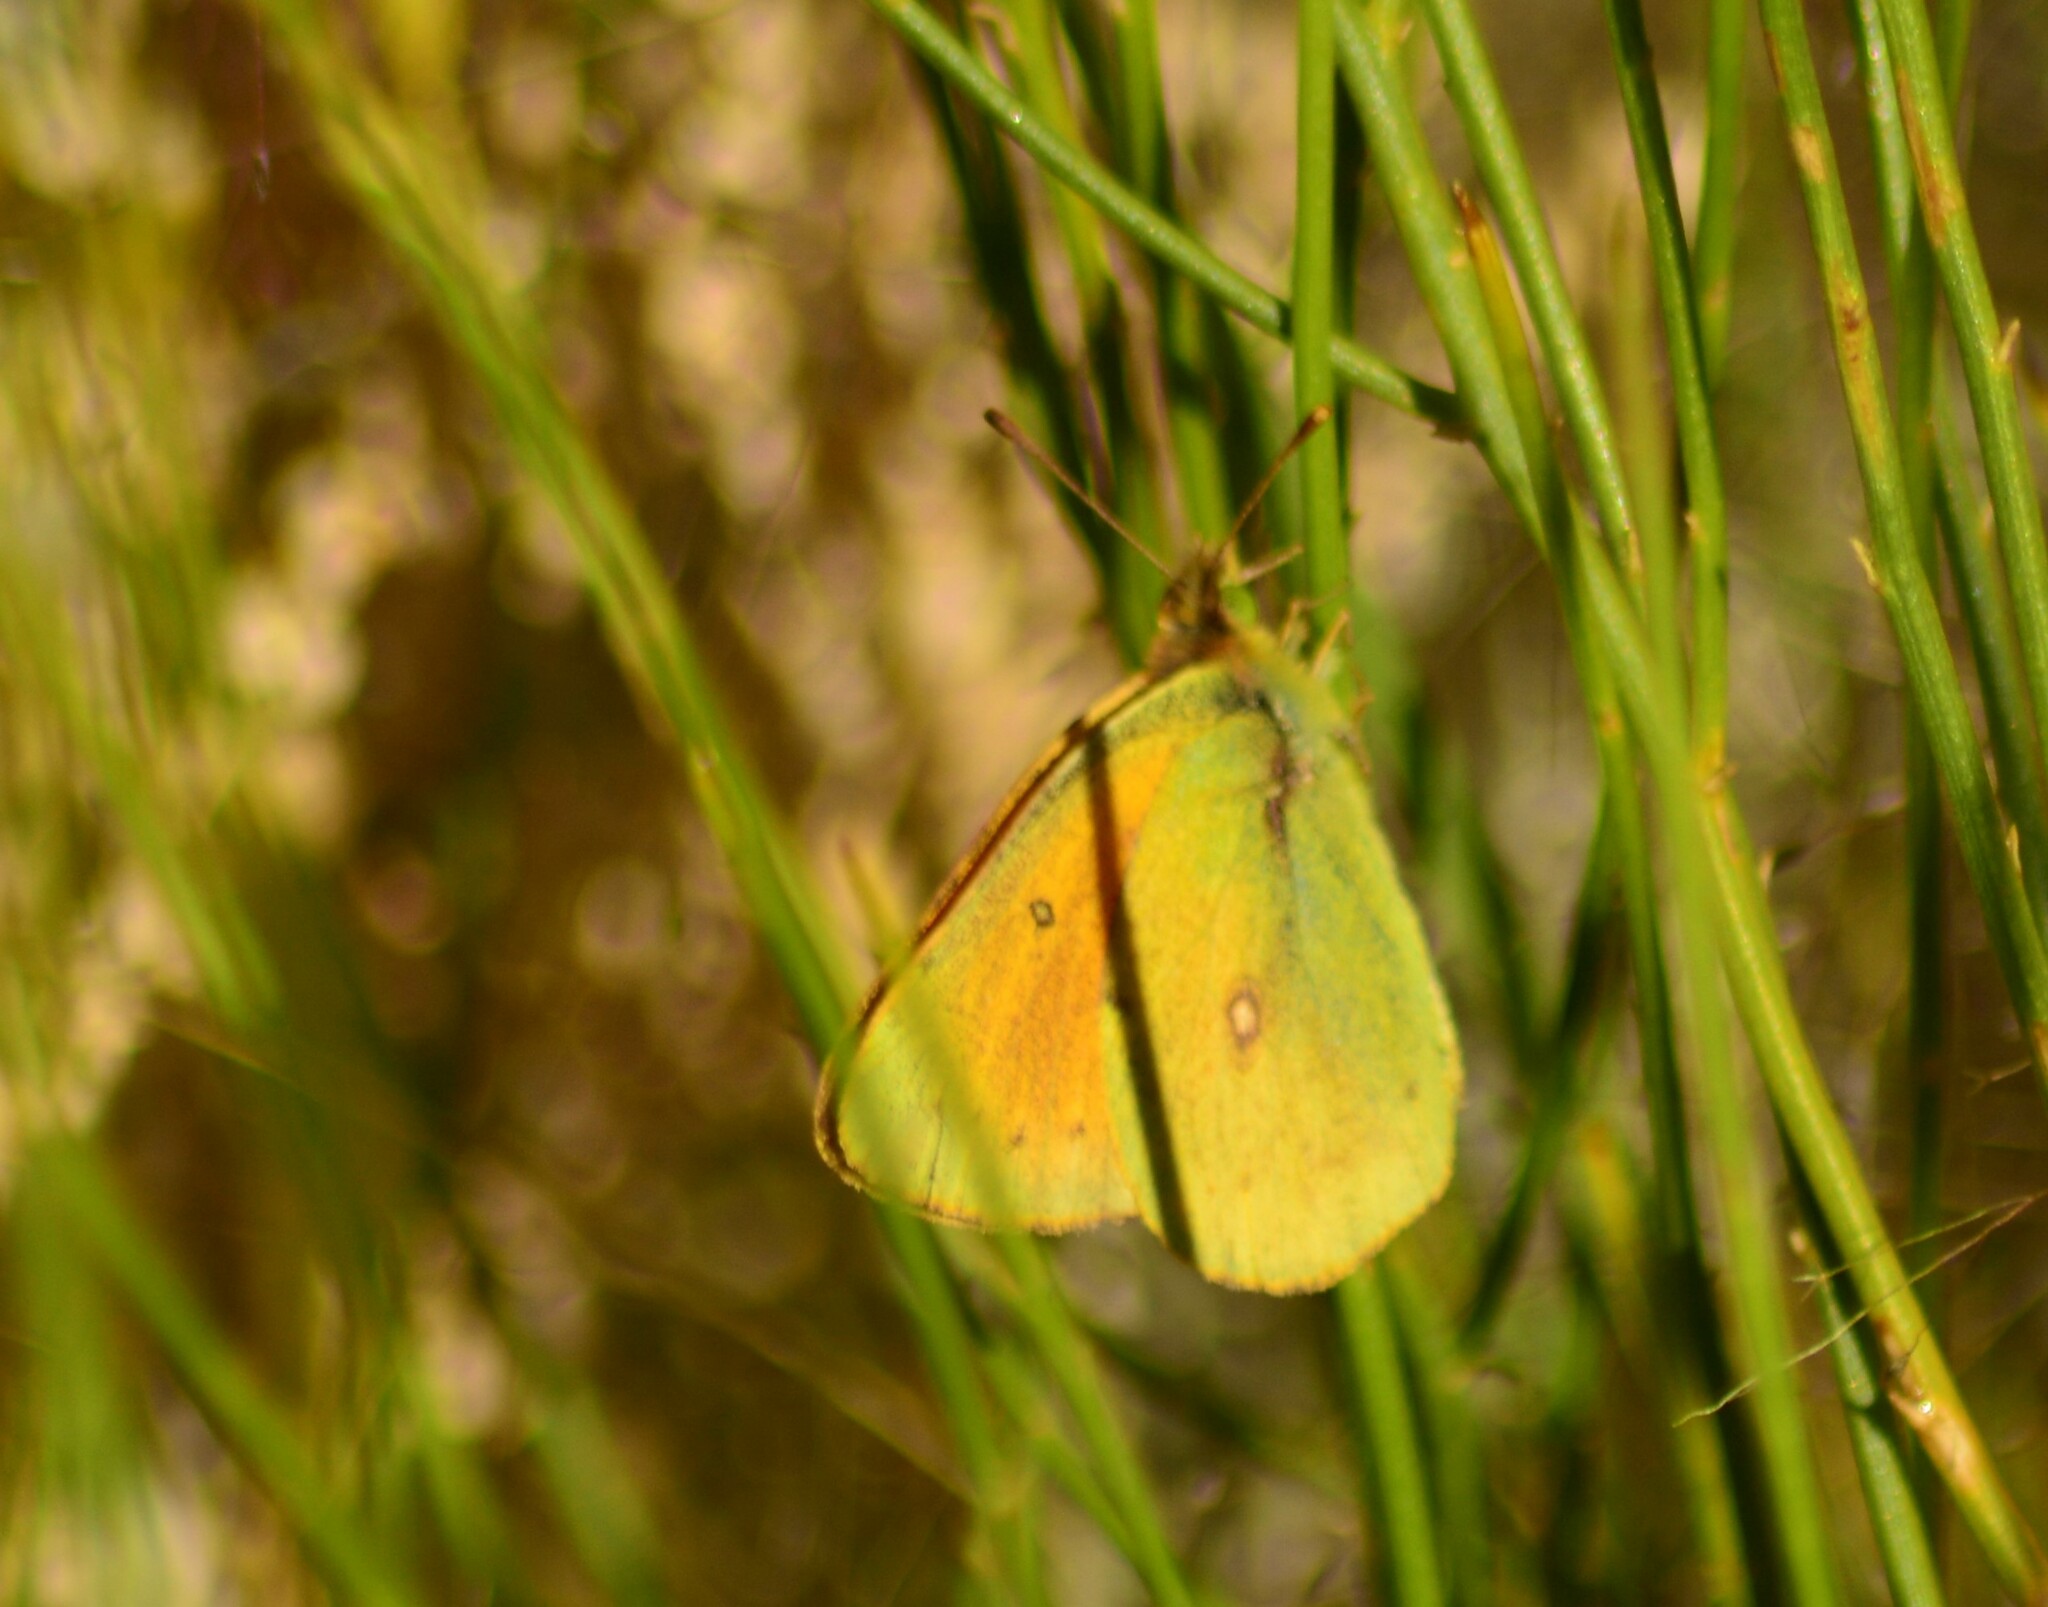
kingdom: Animalia
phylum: Arthropoda
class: Insecta
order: Lepidoptera
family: Pieridae
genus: Colias
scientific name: Colias lesbia
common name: Lesbia clouded yellow
